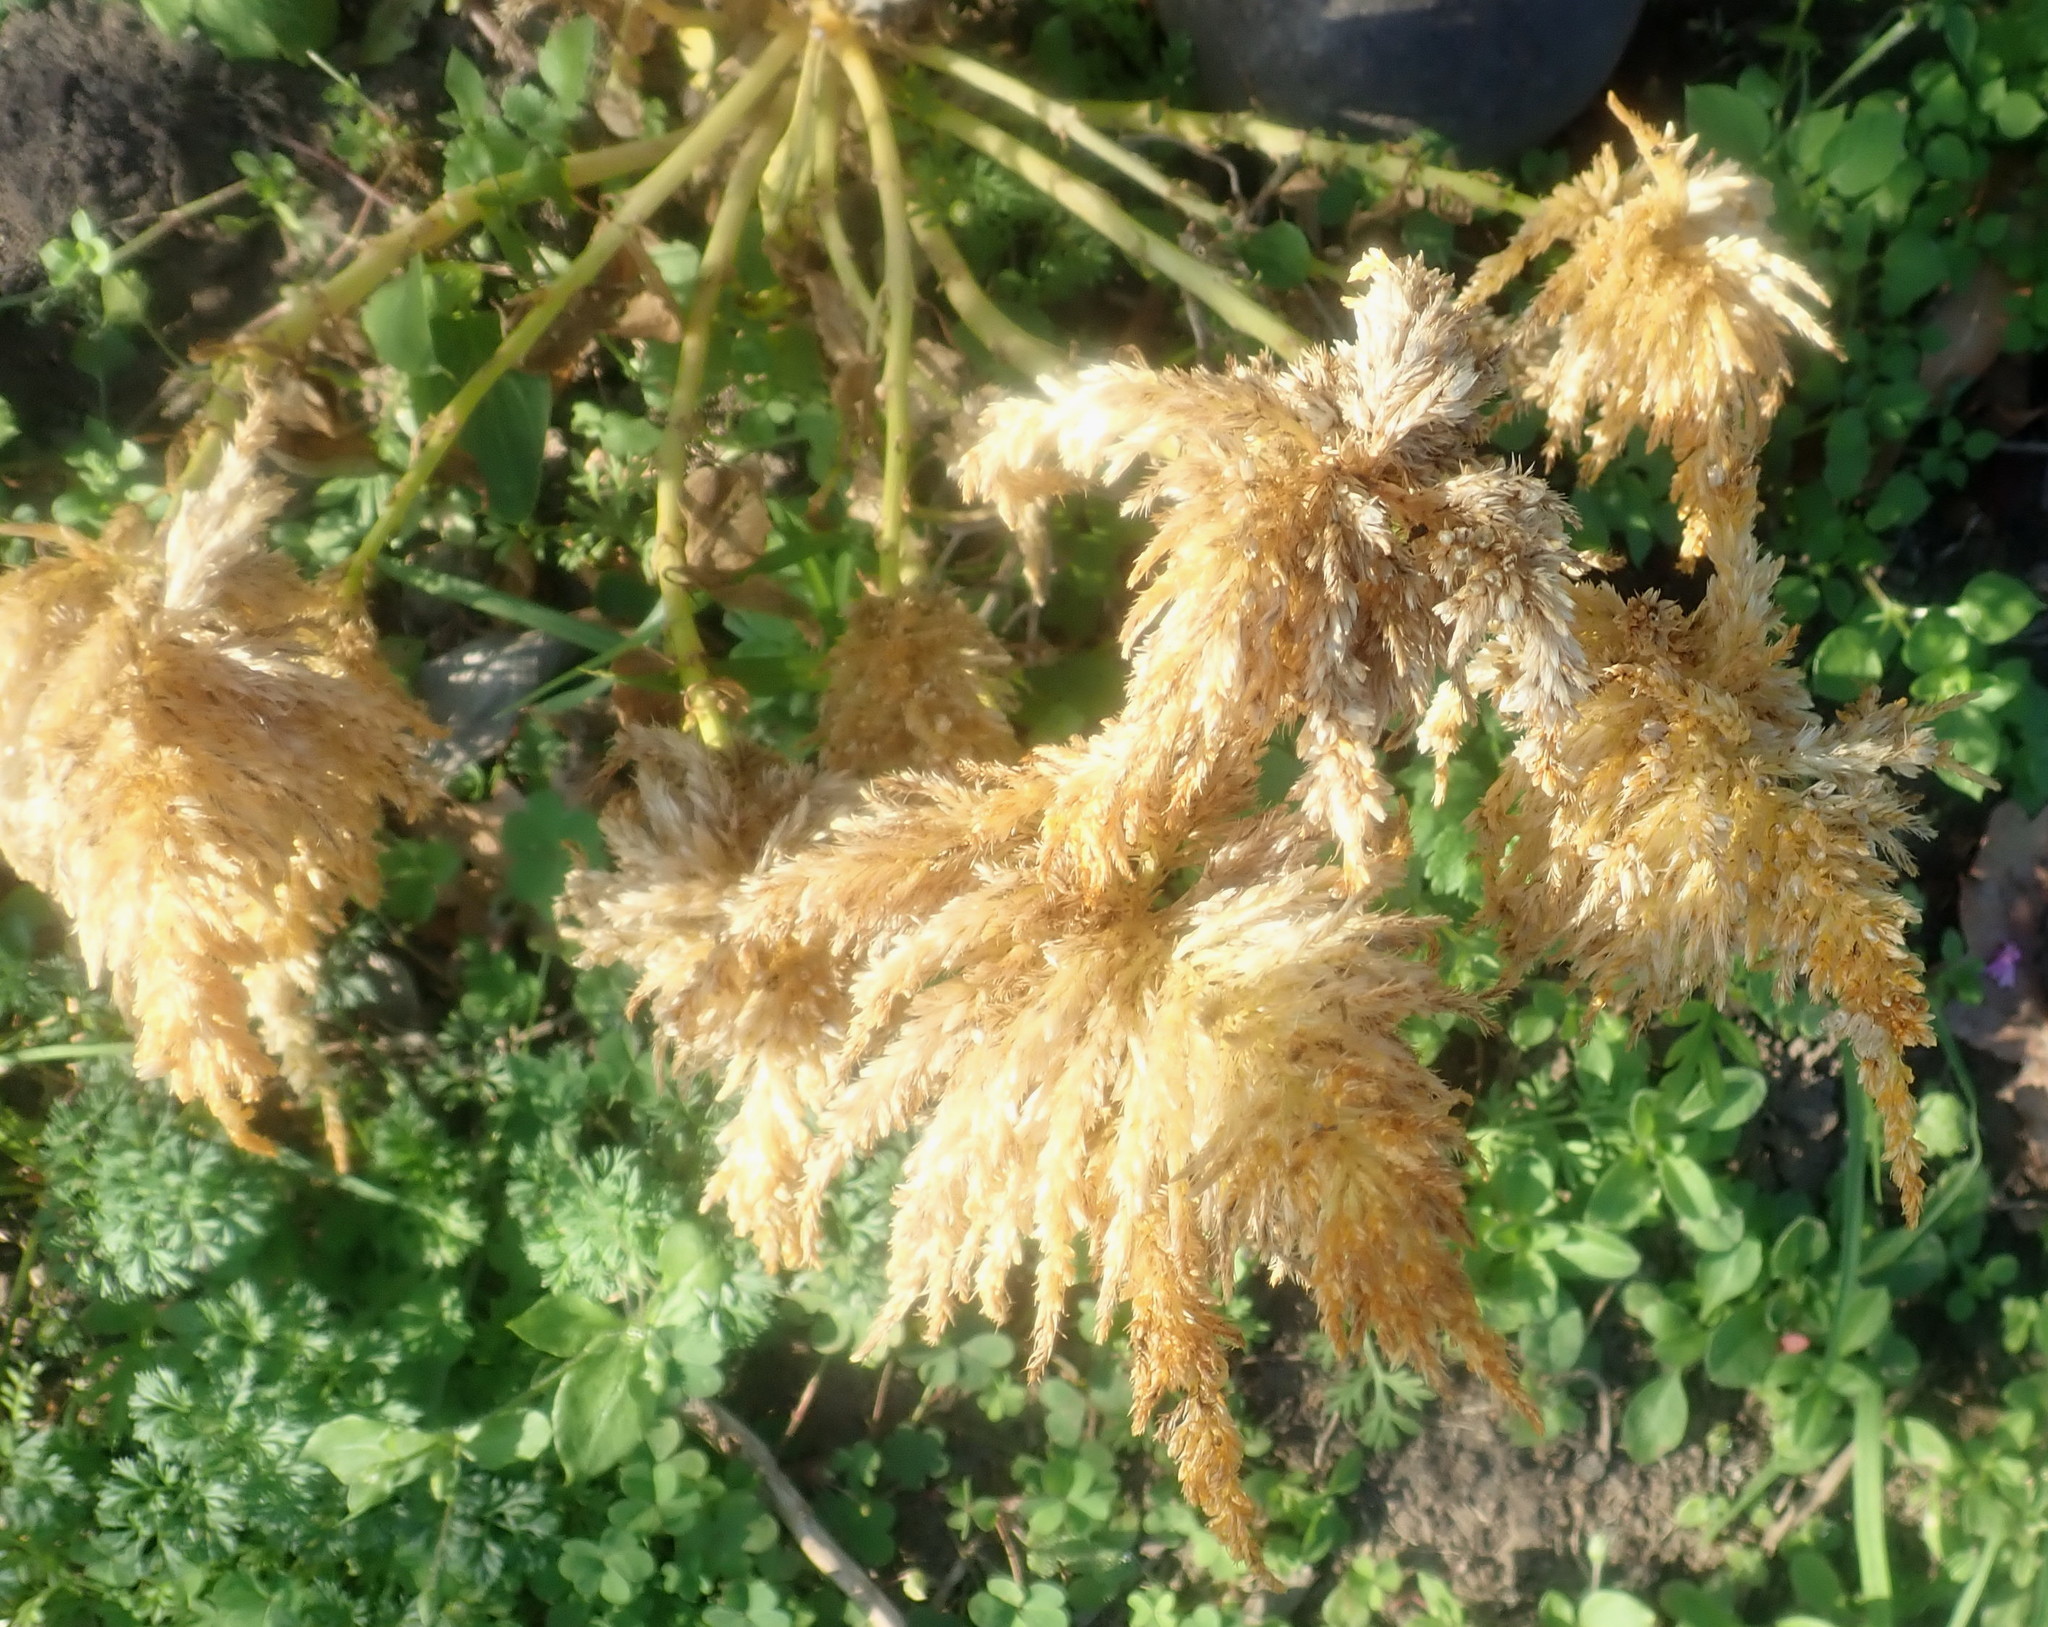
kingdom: Plantae
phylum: Tracheophyta
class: Magnoliopsida
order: Caryophyllales
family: Amaranthaceae
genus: Celosia
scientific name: Celosia argentea
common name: Feather cockscomb
